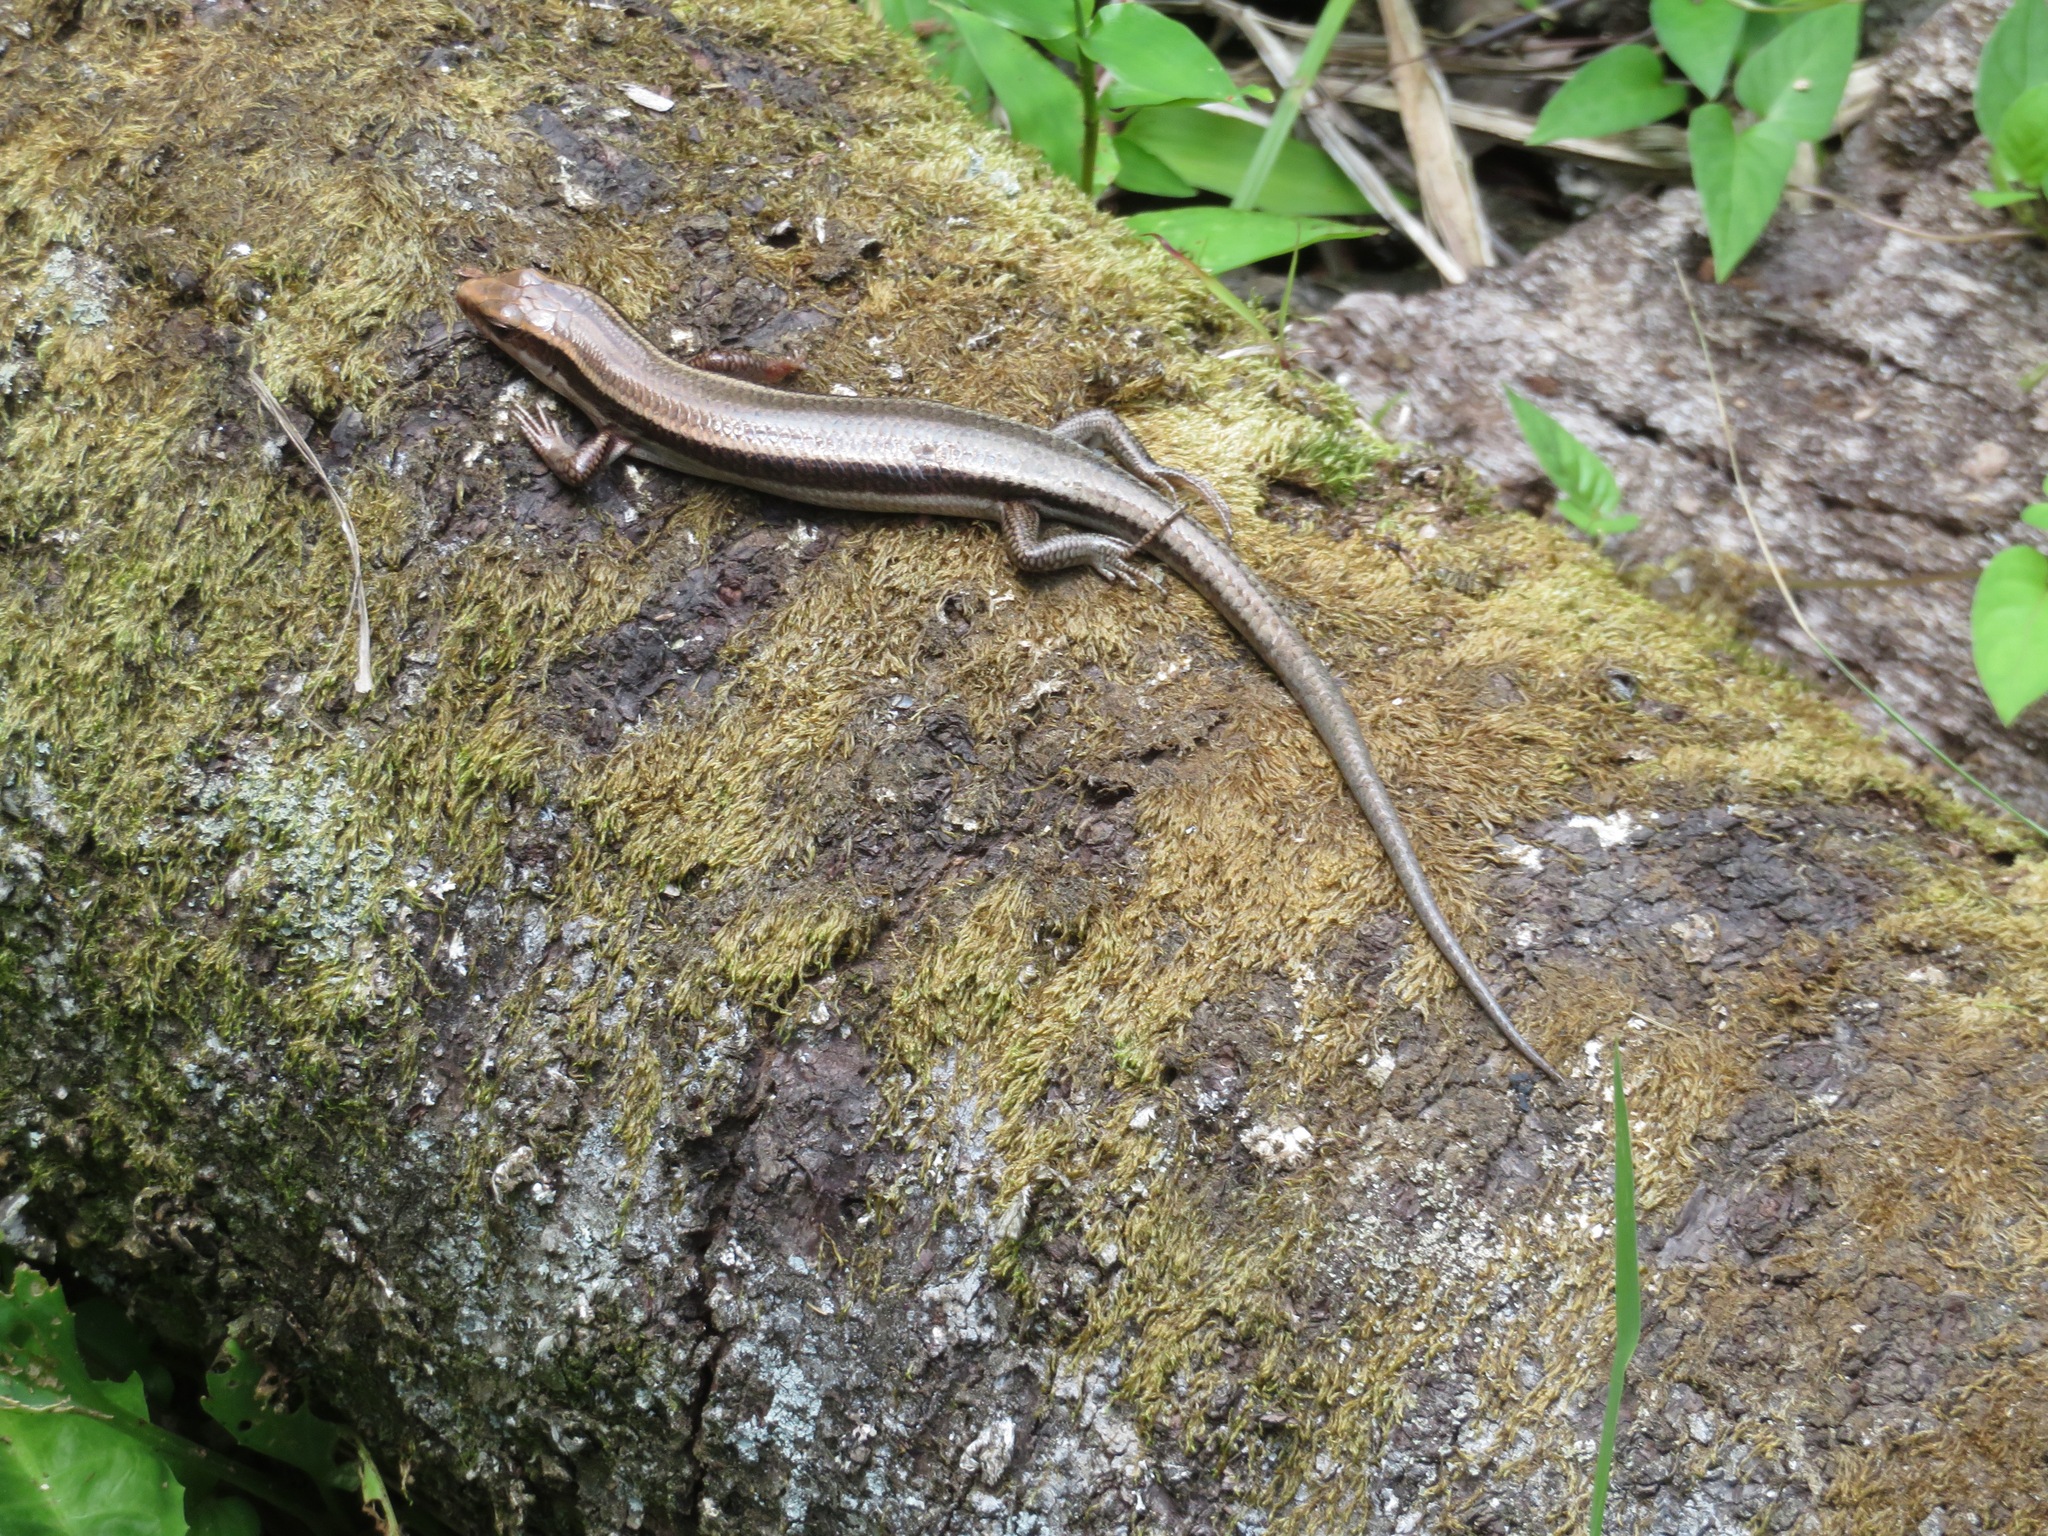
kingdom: Animalia
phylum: Chordata
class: Squamata
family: Scincidae
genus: Plestiodon
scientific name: Plestiodon finitimus
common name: Far eastern skink
